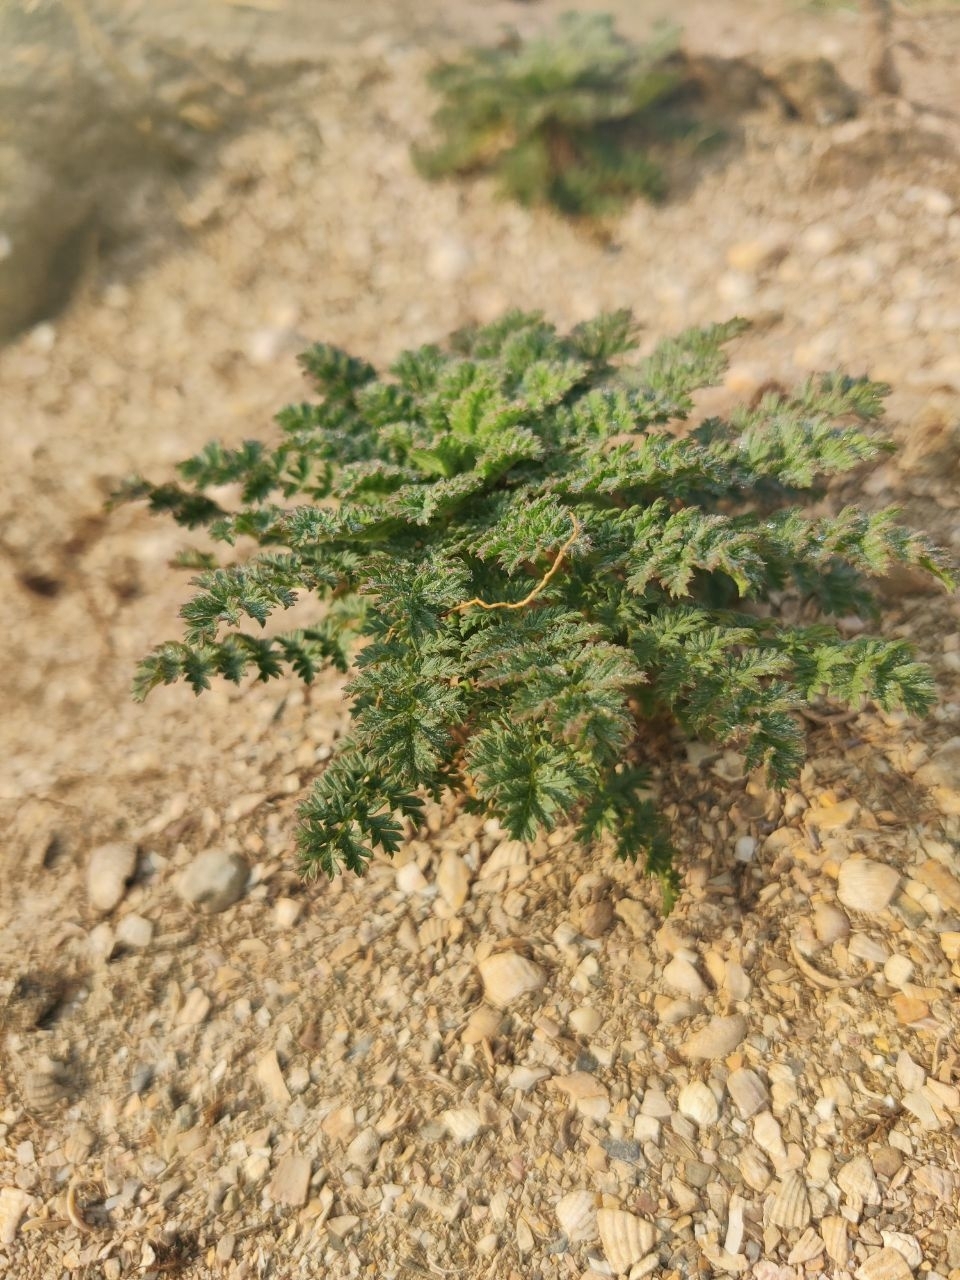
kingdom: Plantae
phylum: Tracheophyta
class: Magnoliopsida
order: Geraniales
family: Geraniaceae
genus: Erodium
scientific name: Erodium cicutarium
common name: Common stork's-bill
